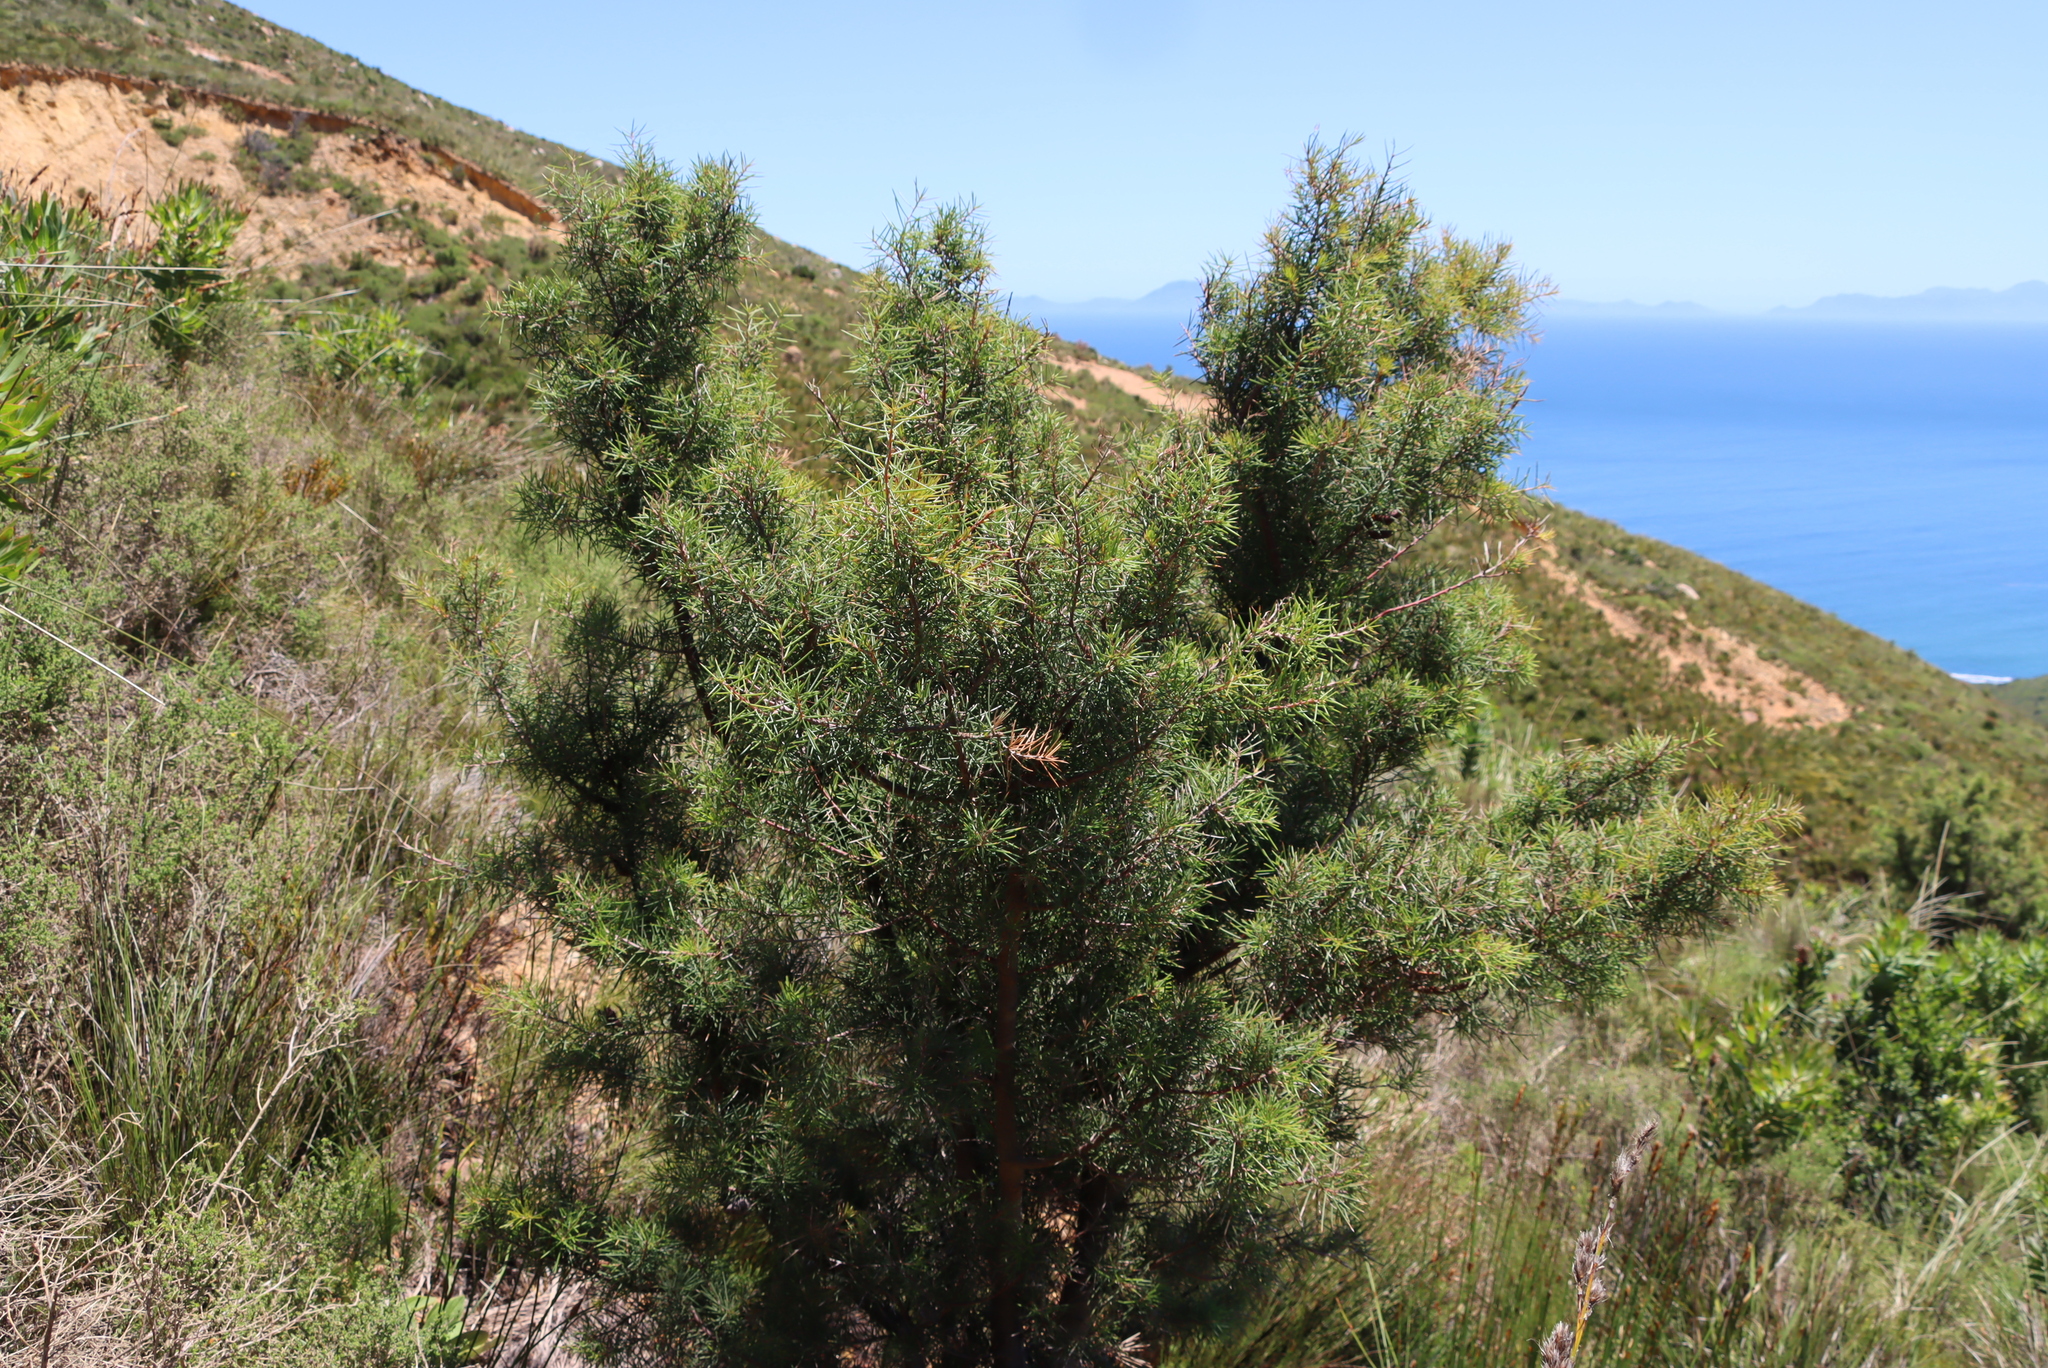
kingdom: Plantae
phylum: Tracheophyta
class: Magnoliopsida
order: Proteales
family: Proteaceae
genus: Hakea
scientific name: Hakea sericea
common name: Needle bush
